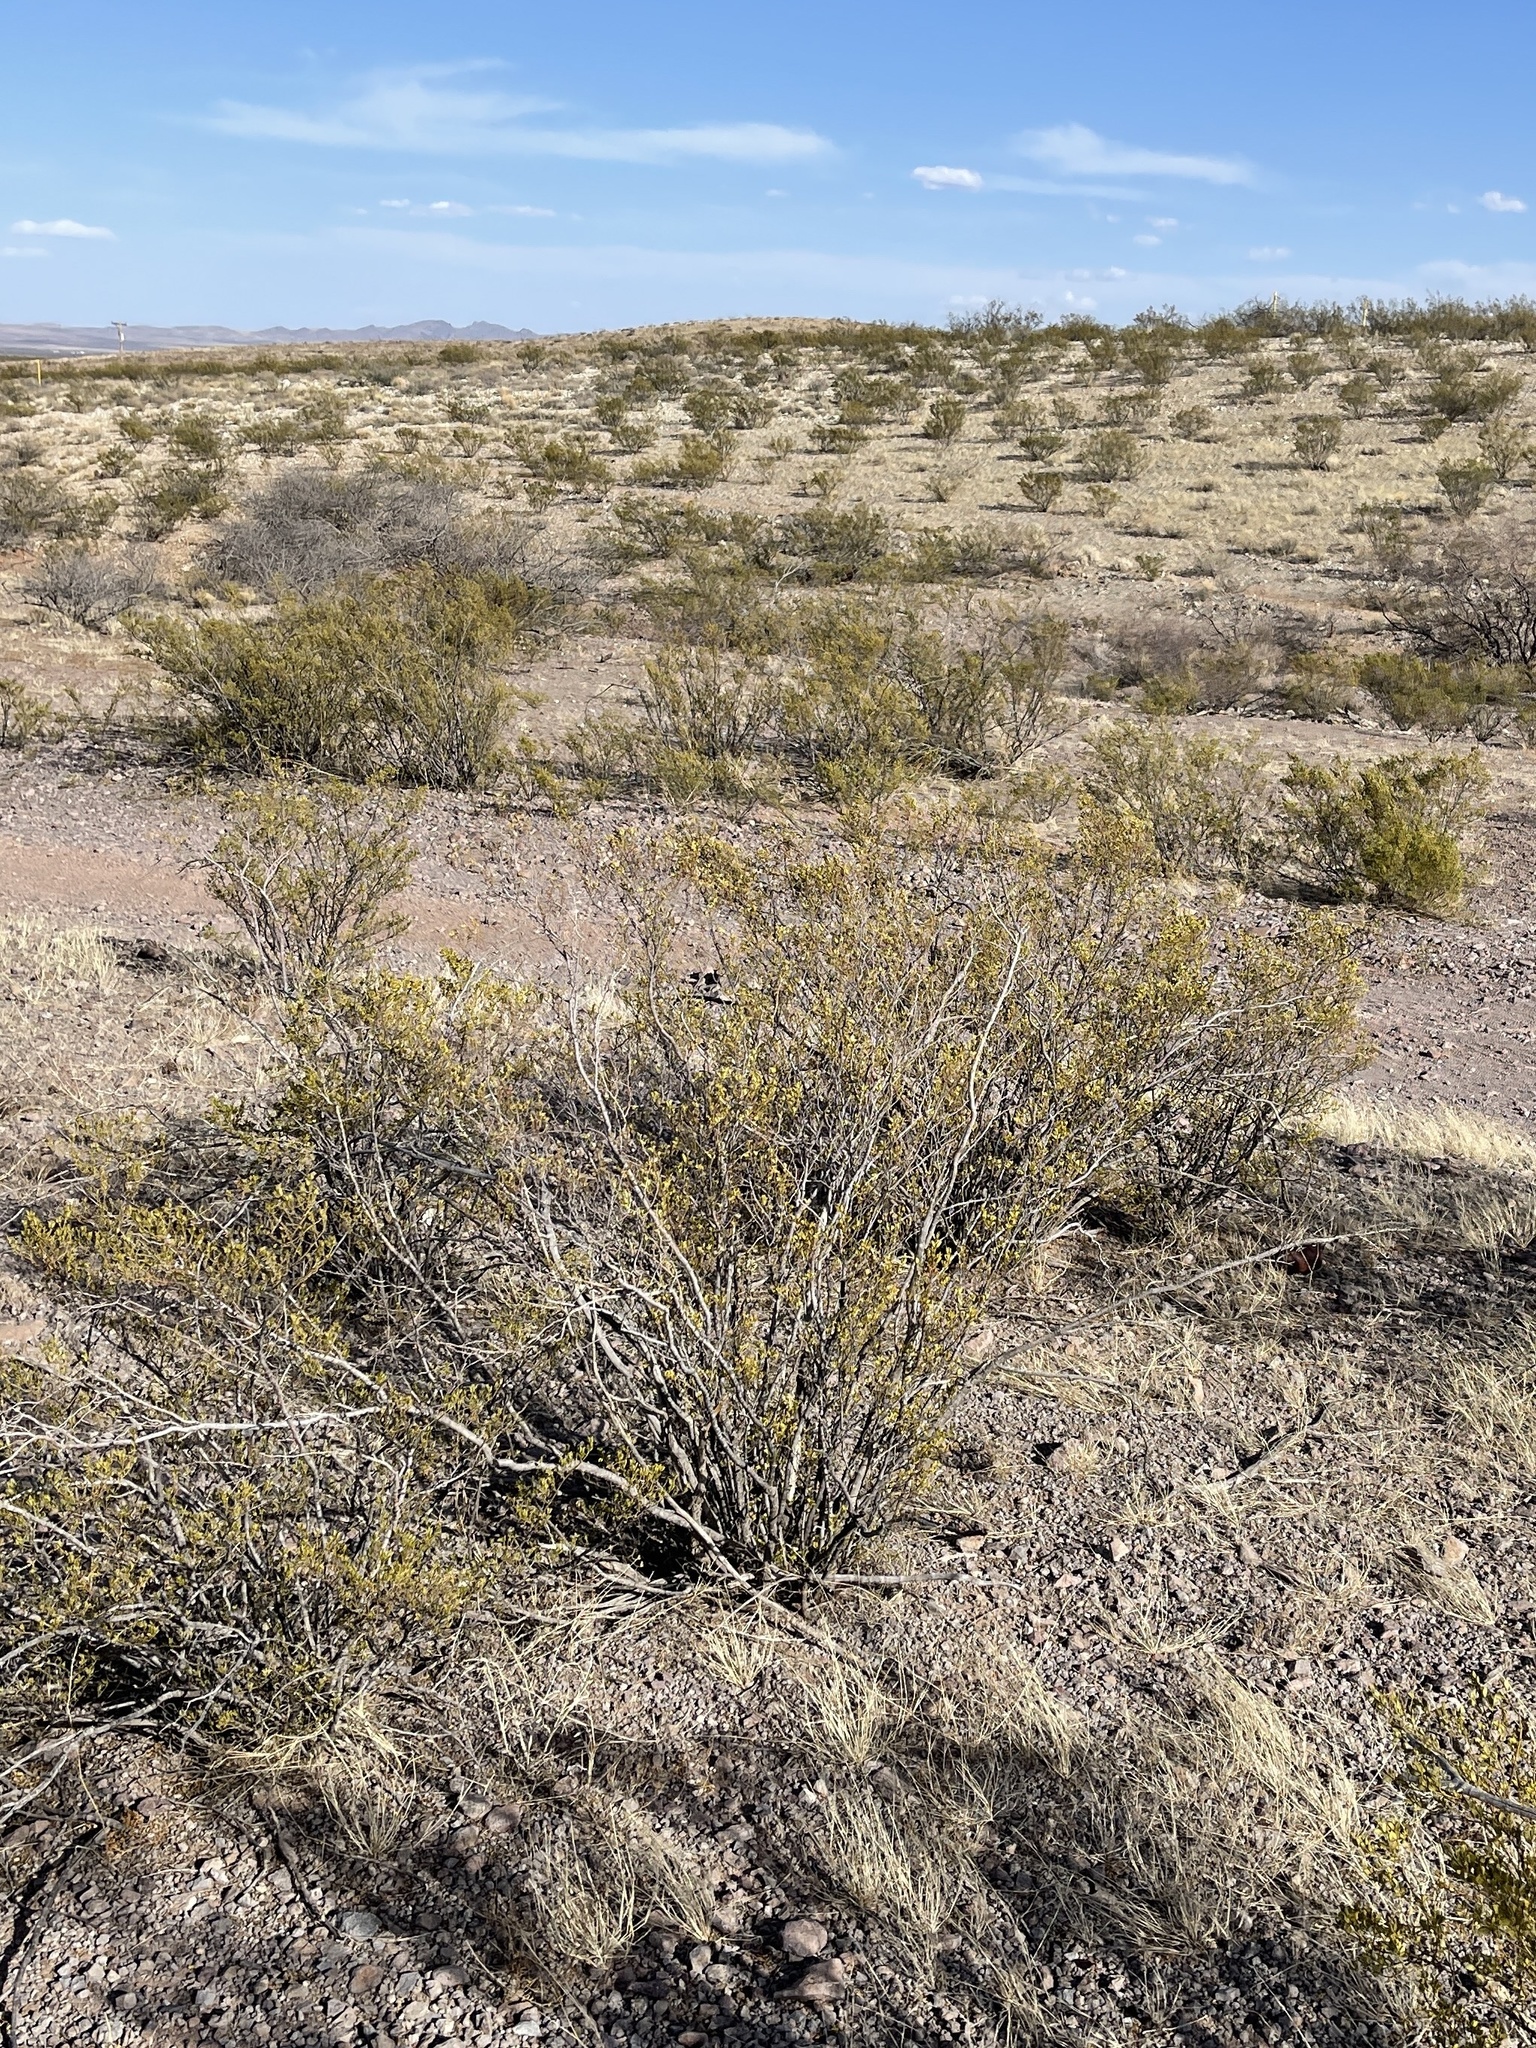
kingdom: Plantae
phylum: Tracheophyta
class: Magnoliopsida
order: Zygophyllales
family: Zygophyllaceae
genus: Larrea
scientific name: Larrea tridentata
